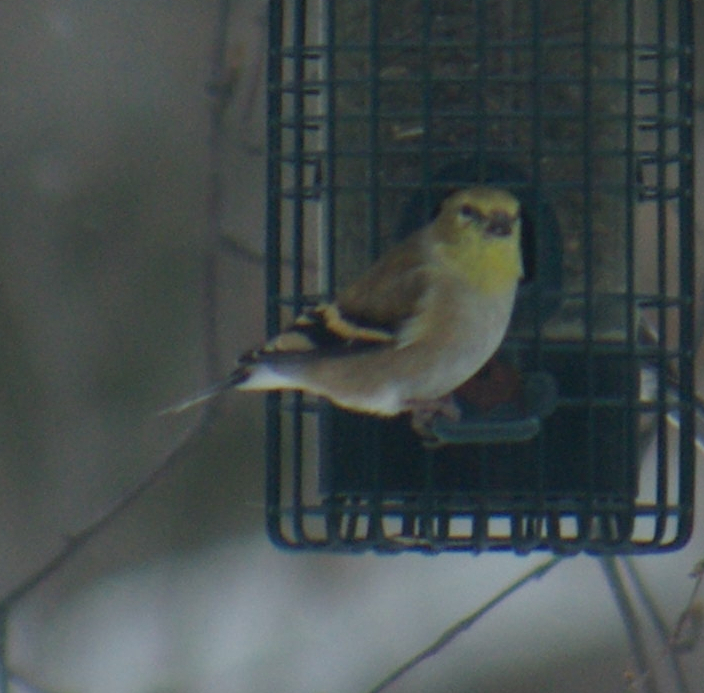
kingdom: Animalia
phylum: Chordata
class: Aves
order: Passeriformes
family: Fringillidae
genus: Spinus
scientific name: Spinus tristis
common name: American goldfinch
